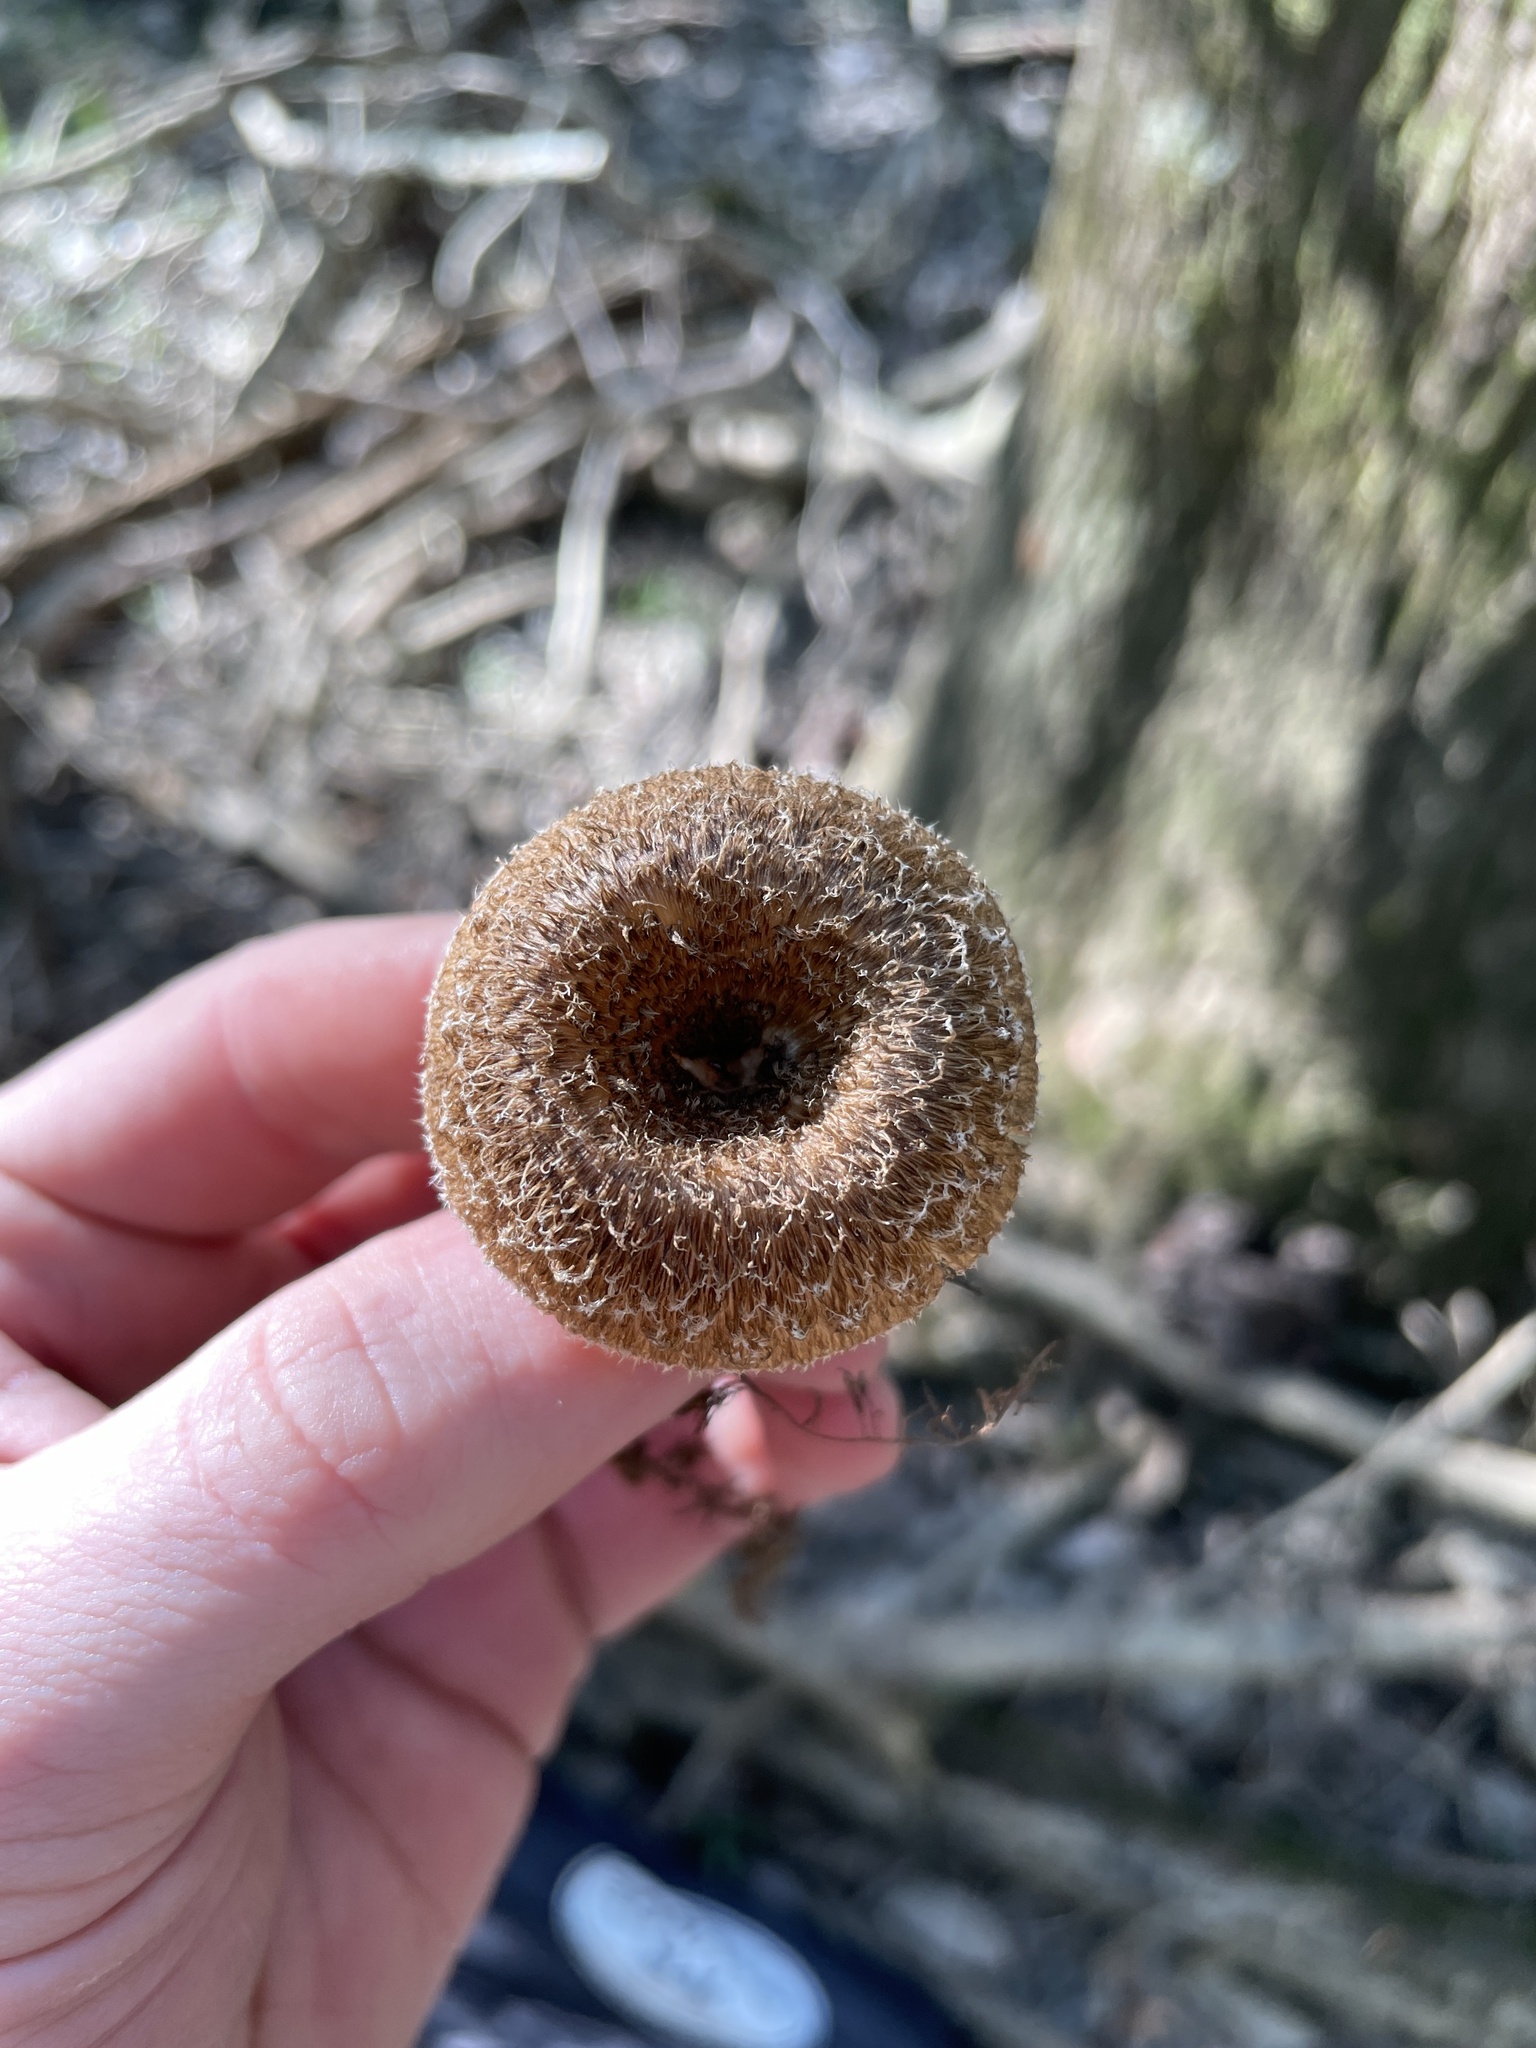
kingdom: Fungi
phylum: Basidiomycota
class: Agaricomycetes
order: Polyporales
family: Polyporaceae
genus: Lentinus
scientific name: Lentinus crinitus
